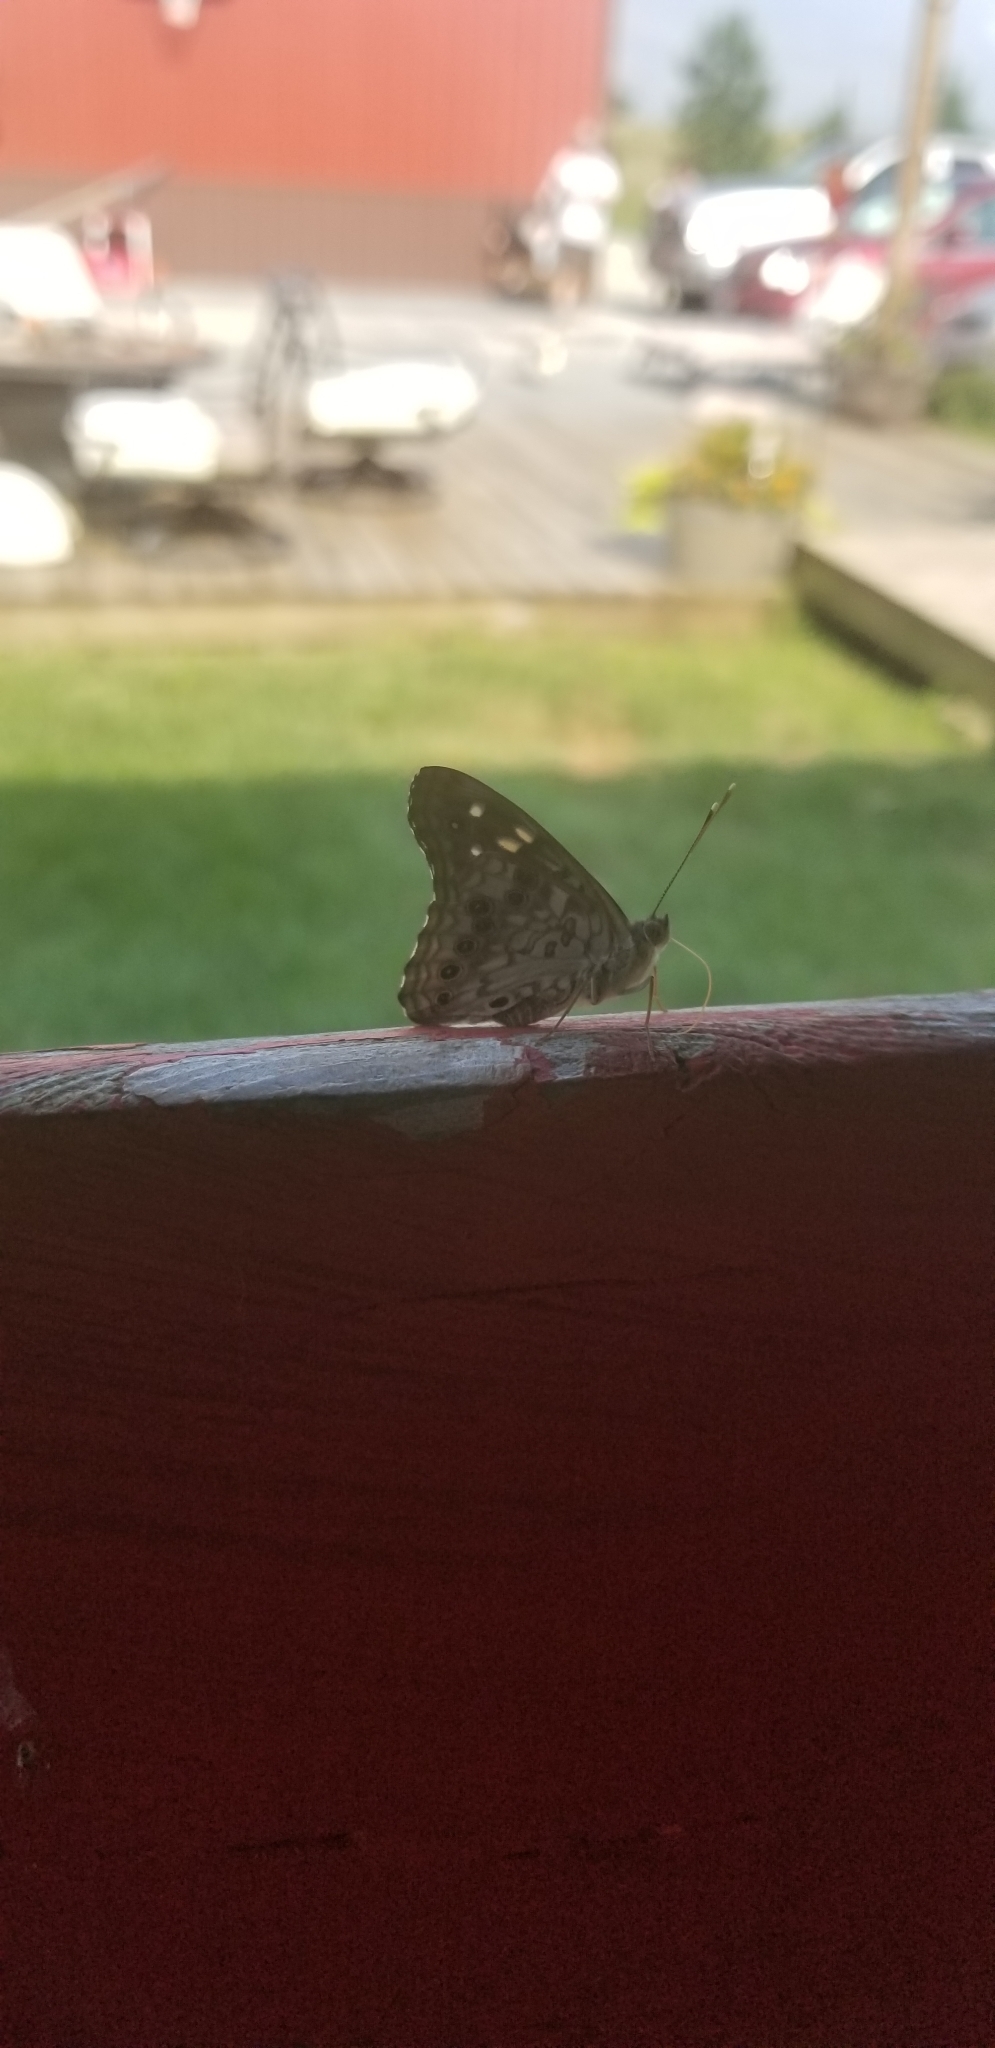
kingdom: Animalia
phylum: Arthropoda
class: Insecta
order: Lepidoptera
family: Nymphalidae
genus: Asterocampa
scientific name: Asterocampa celtis
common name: Hackberry emperor
